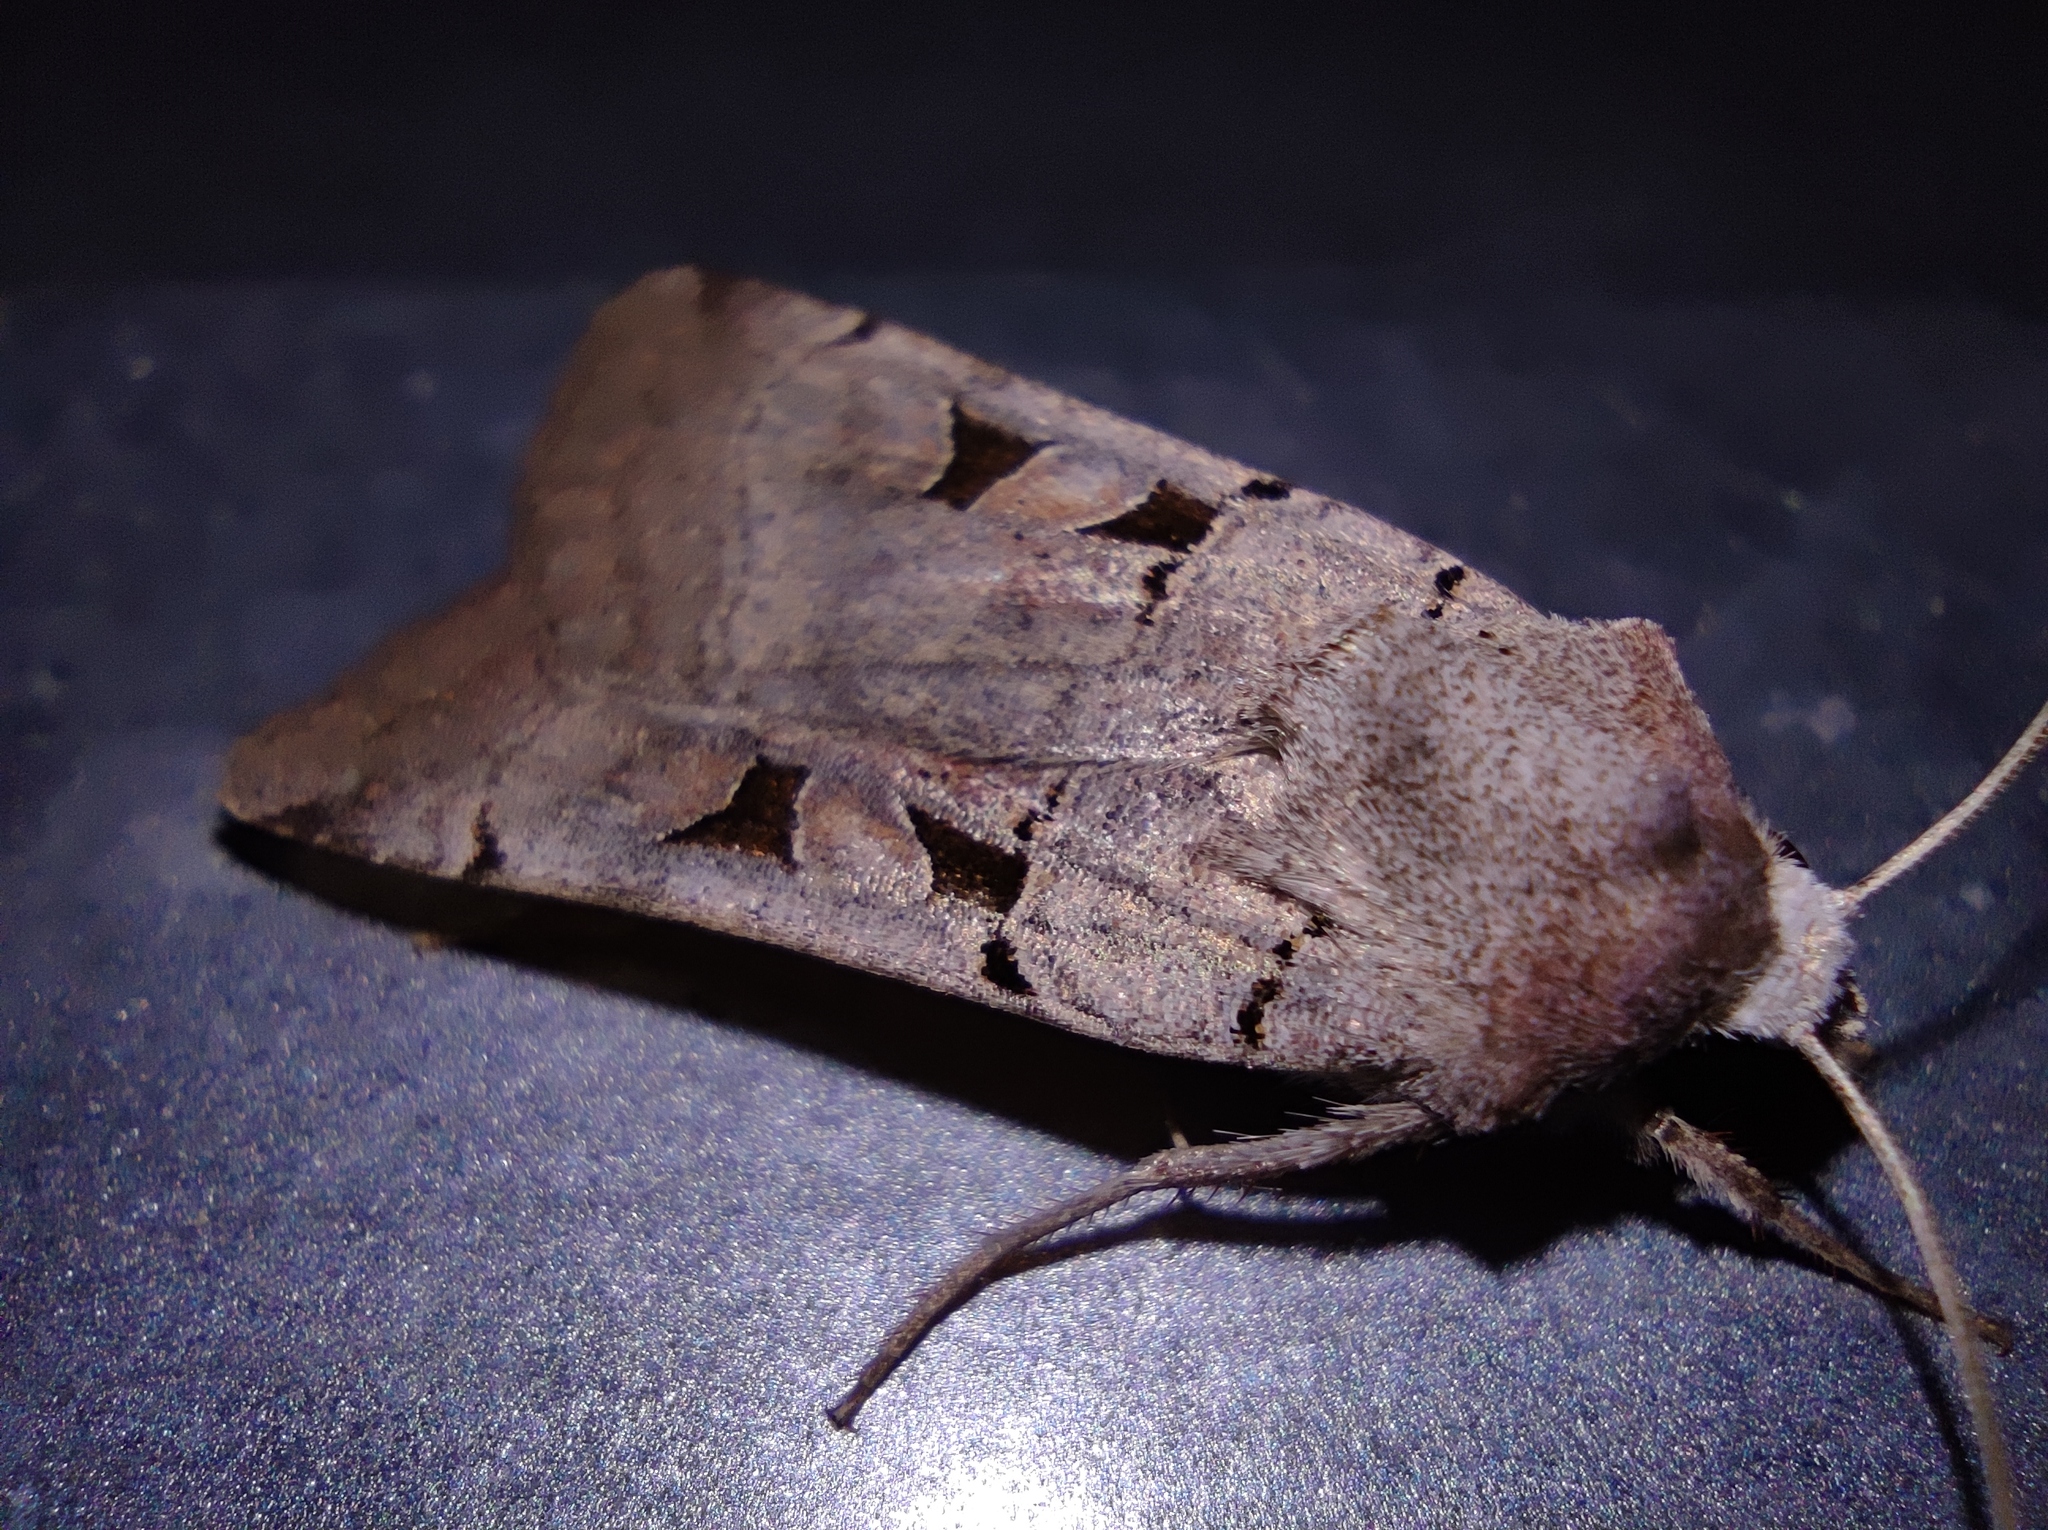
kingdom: Animalia
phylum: Arthropoda
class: Insecta
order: Lepidoptera
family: Noctuidae
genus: Eugnorisma
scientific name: Eugnorisma chaldaica
